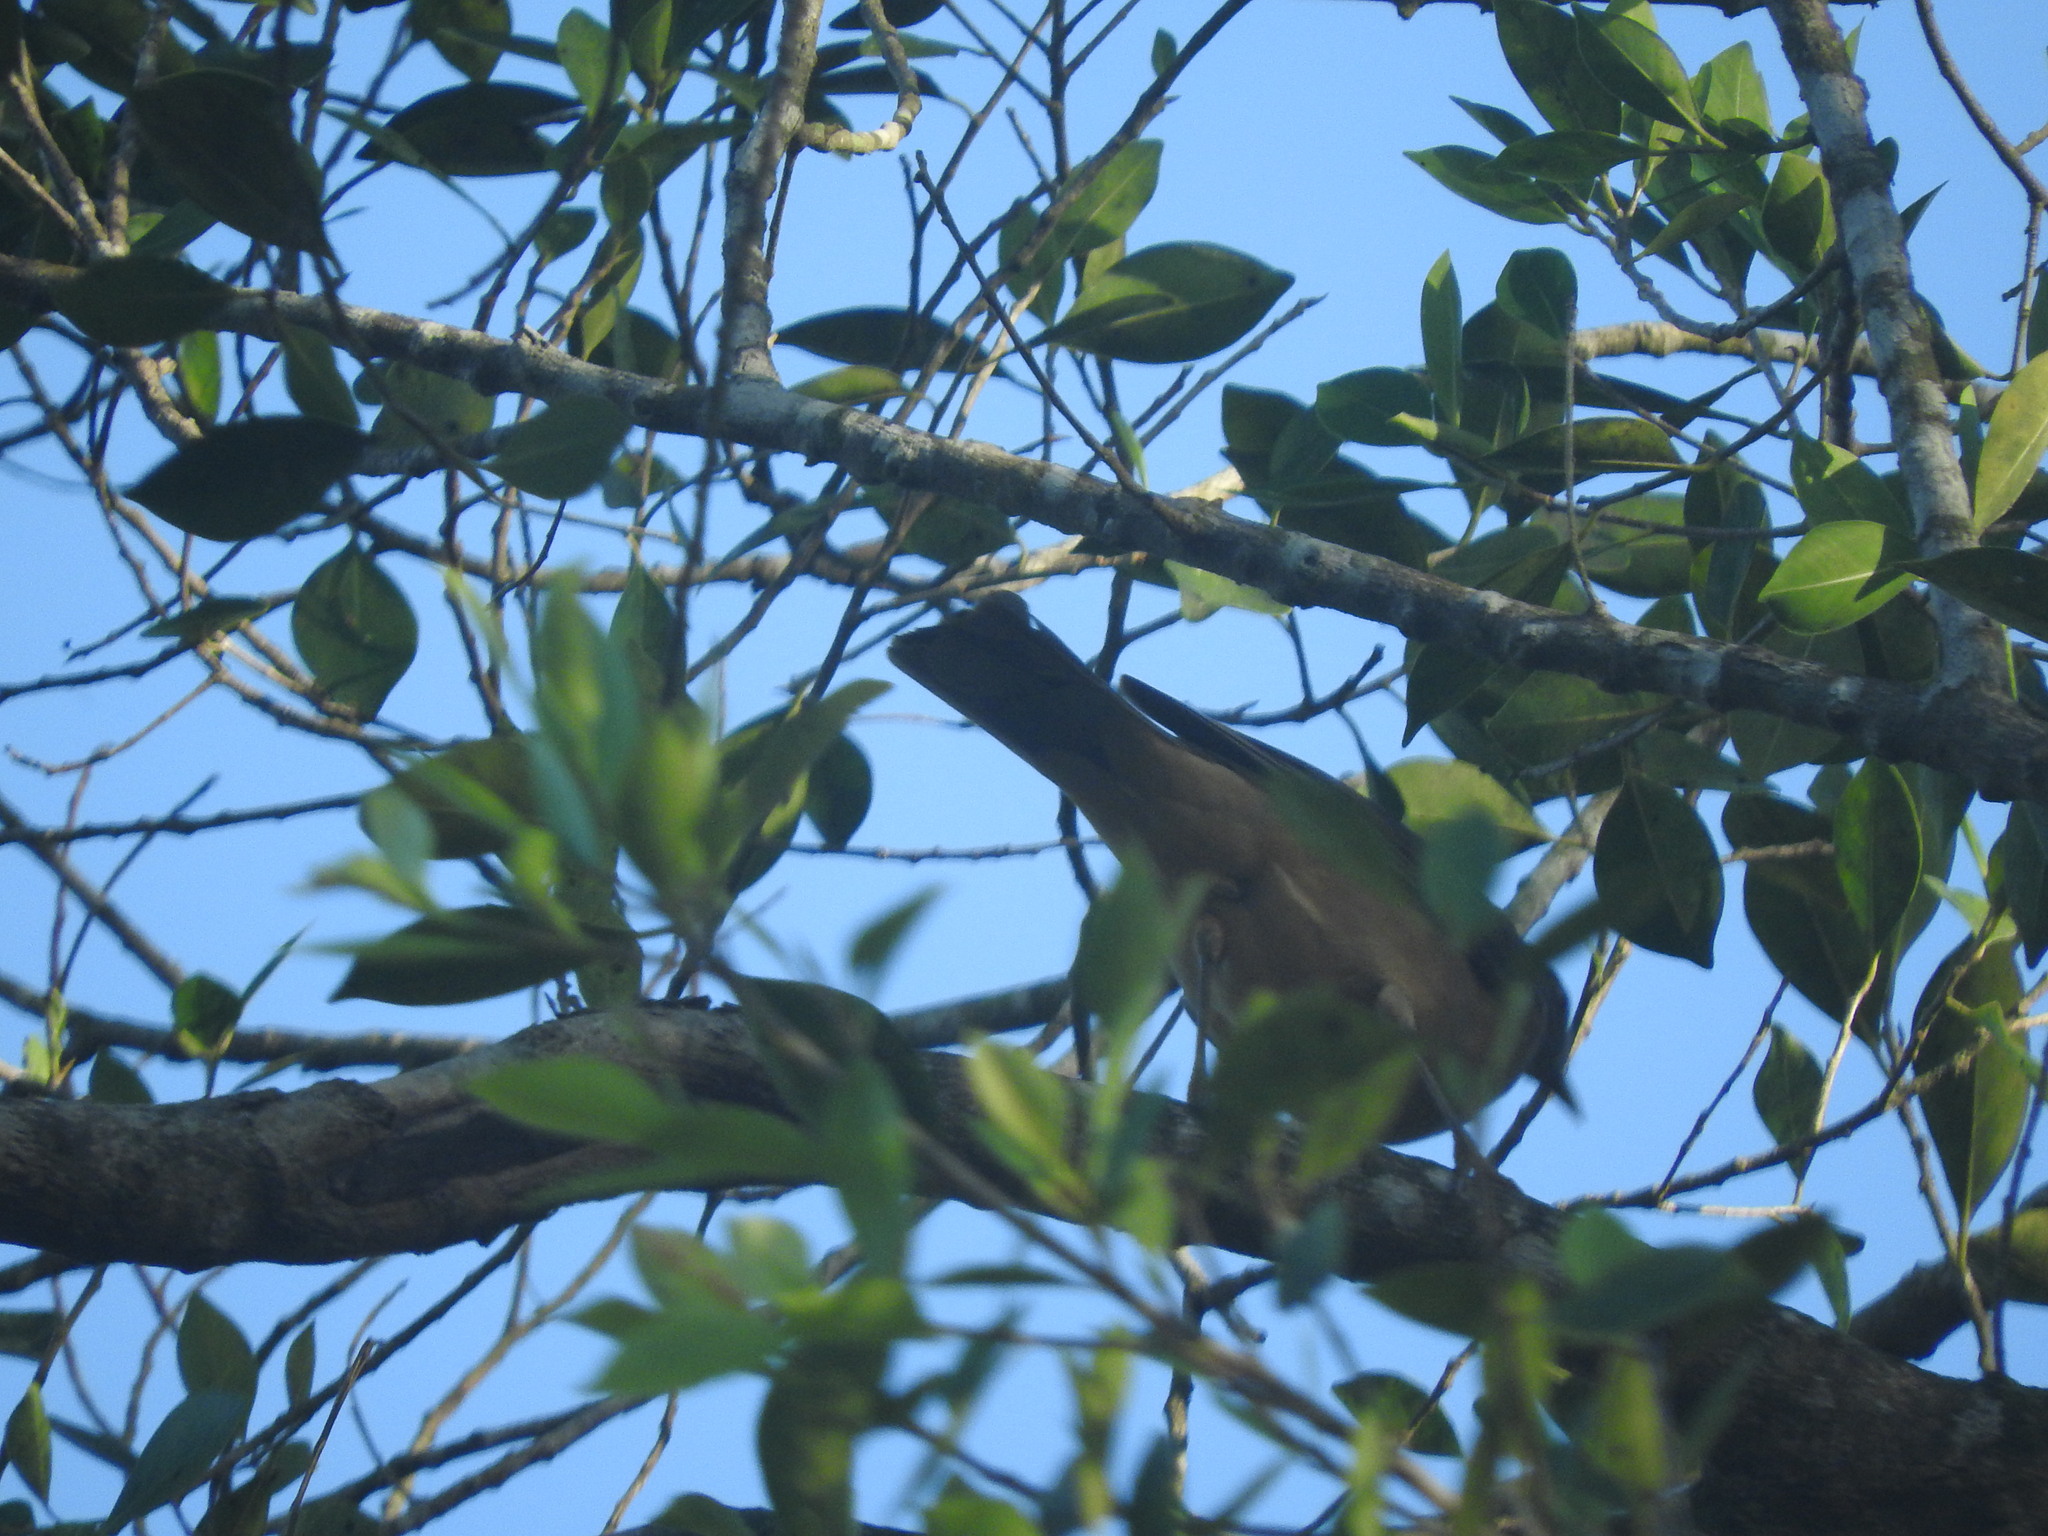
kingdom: Animalia
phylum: Chordata
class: Aves
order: Passeriformes
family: Turdidae
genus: Turdus
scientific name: Turdus grayi
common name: Clay-colored thrush
